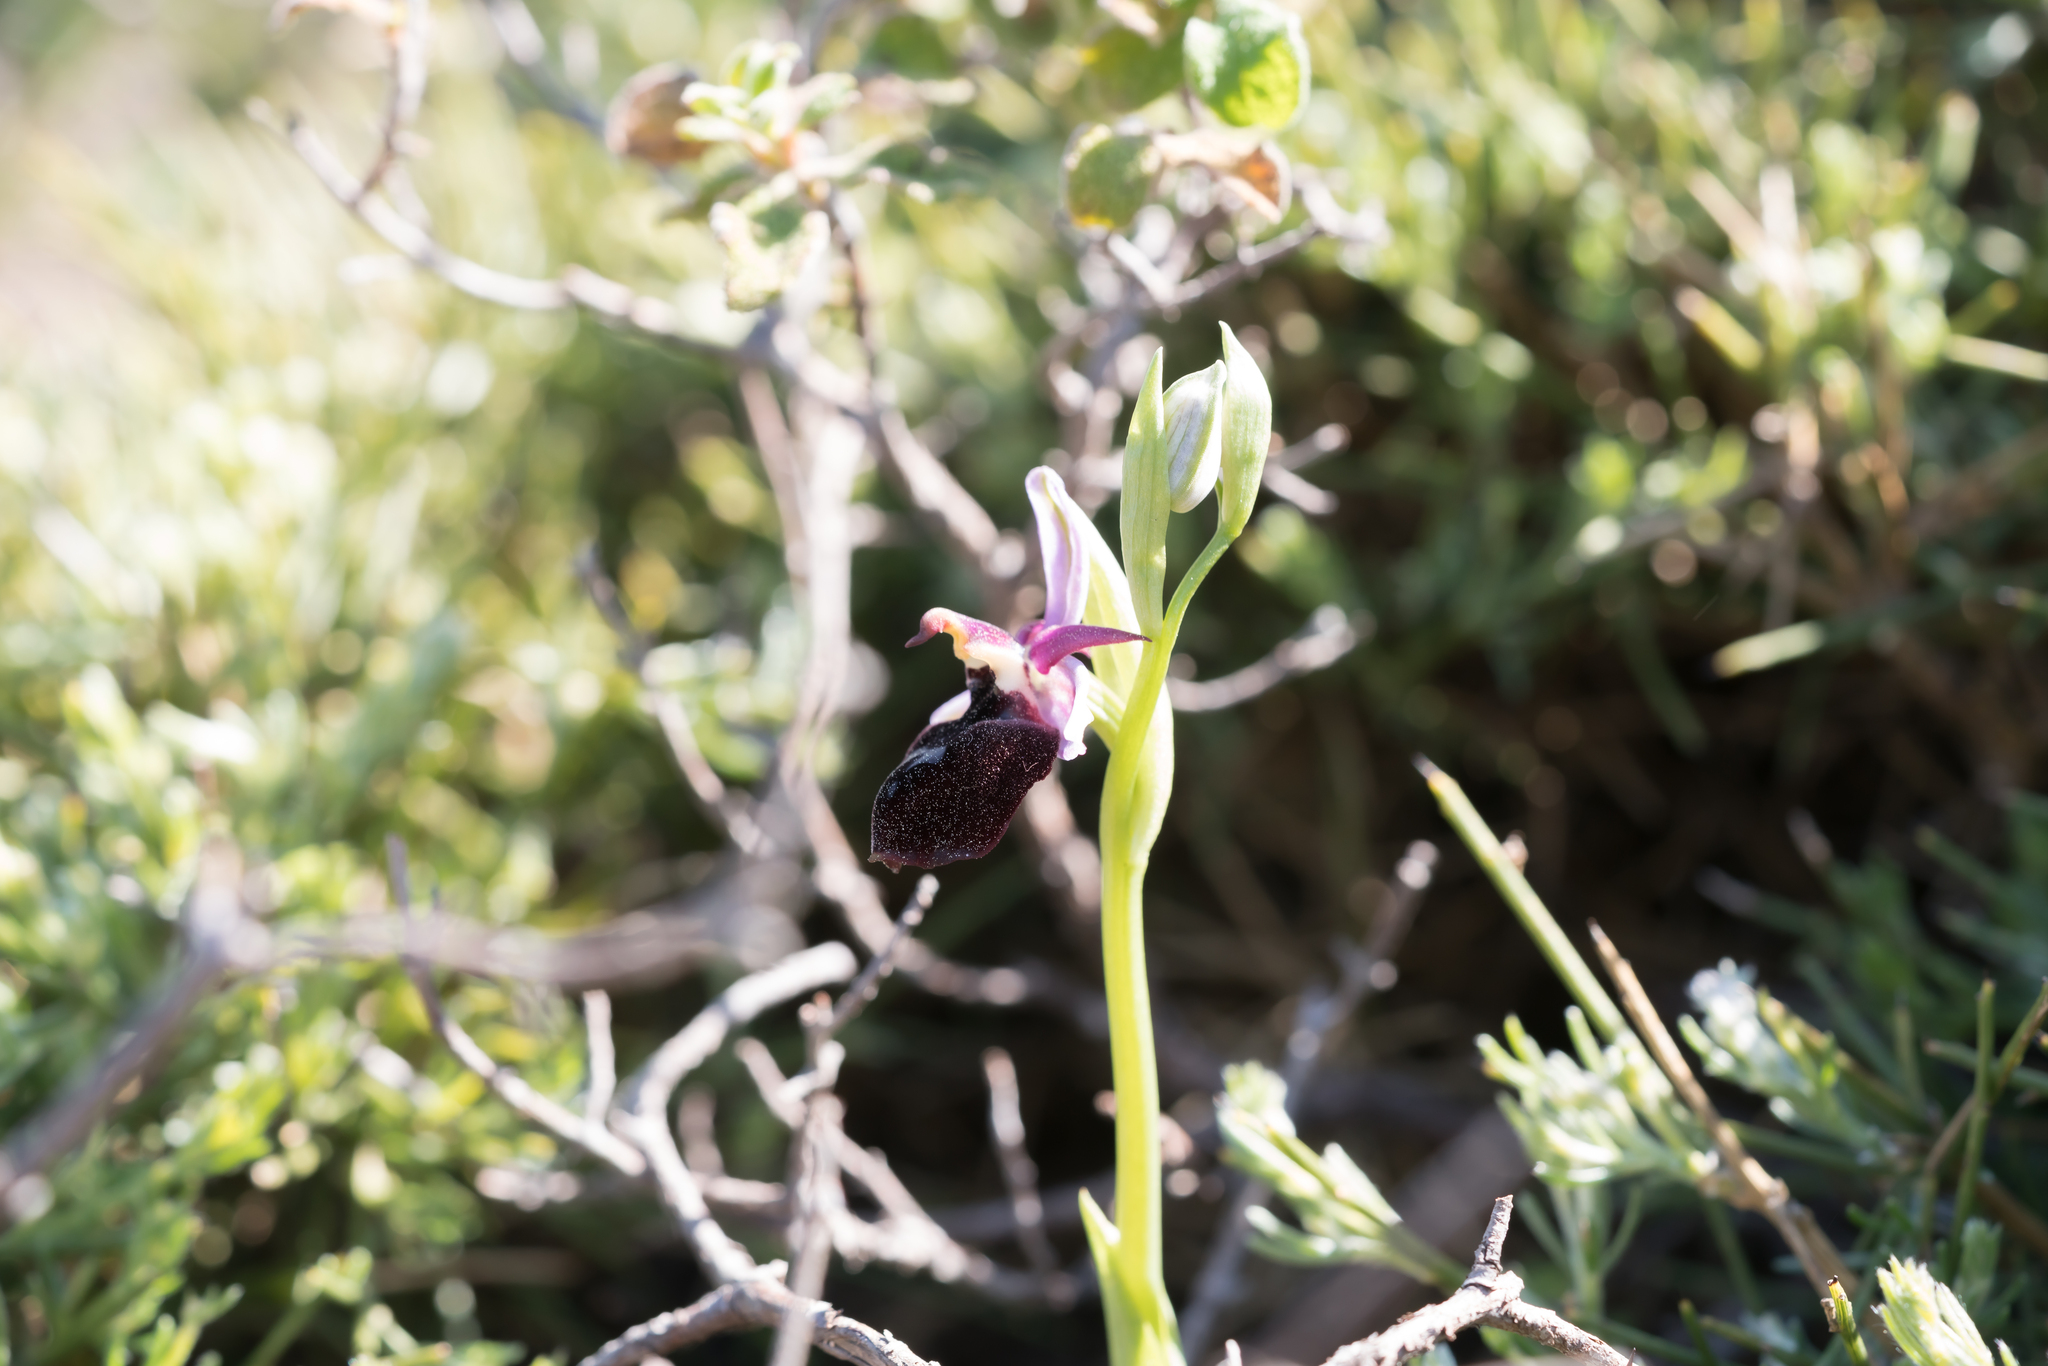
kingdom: Plantae
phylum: Tracheophyta
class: Liliopsida
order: Asparagales
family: Orchidaceae
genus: Ophrys
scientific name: Ophrys ferrum-equinum
